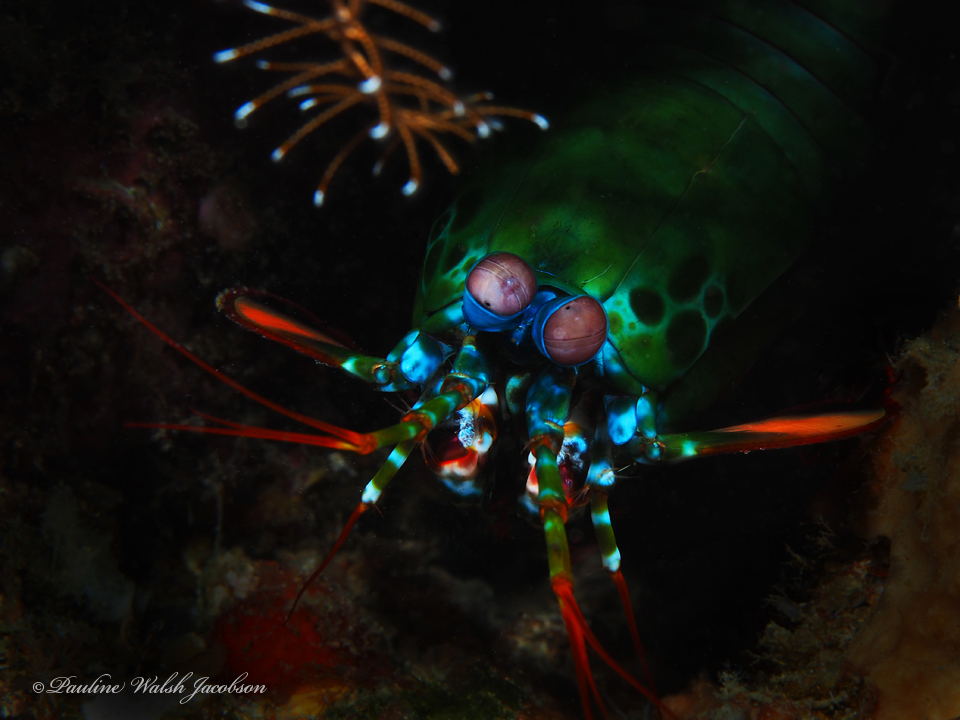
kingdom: Animalia
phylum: Arthropoda
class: Malacostraca
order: Stomatopoda
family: Odontodactylidae
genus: Odontodactylus
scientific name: Odontodactylus scyllarus
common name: Peacock mantis shrimp
